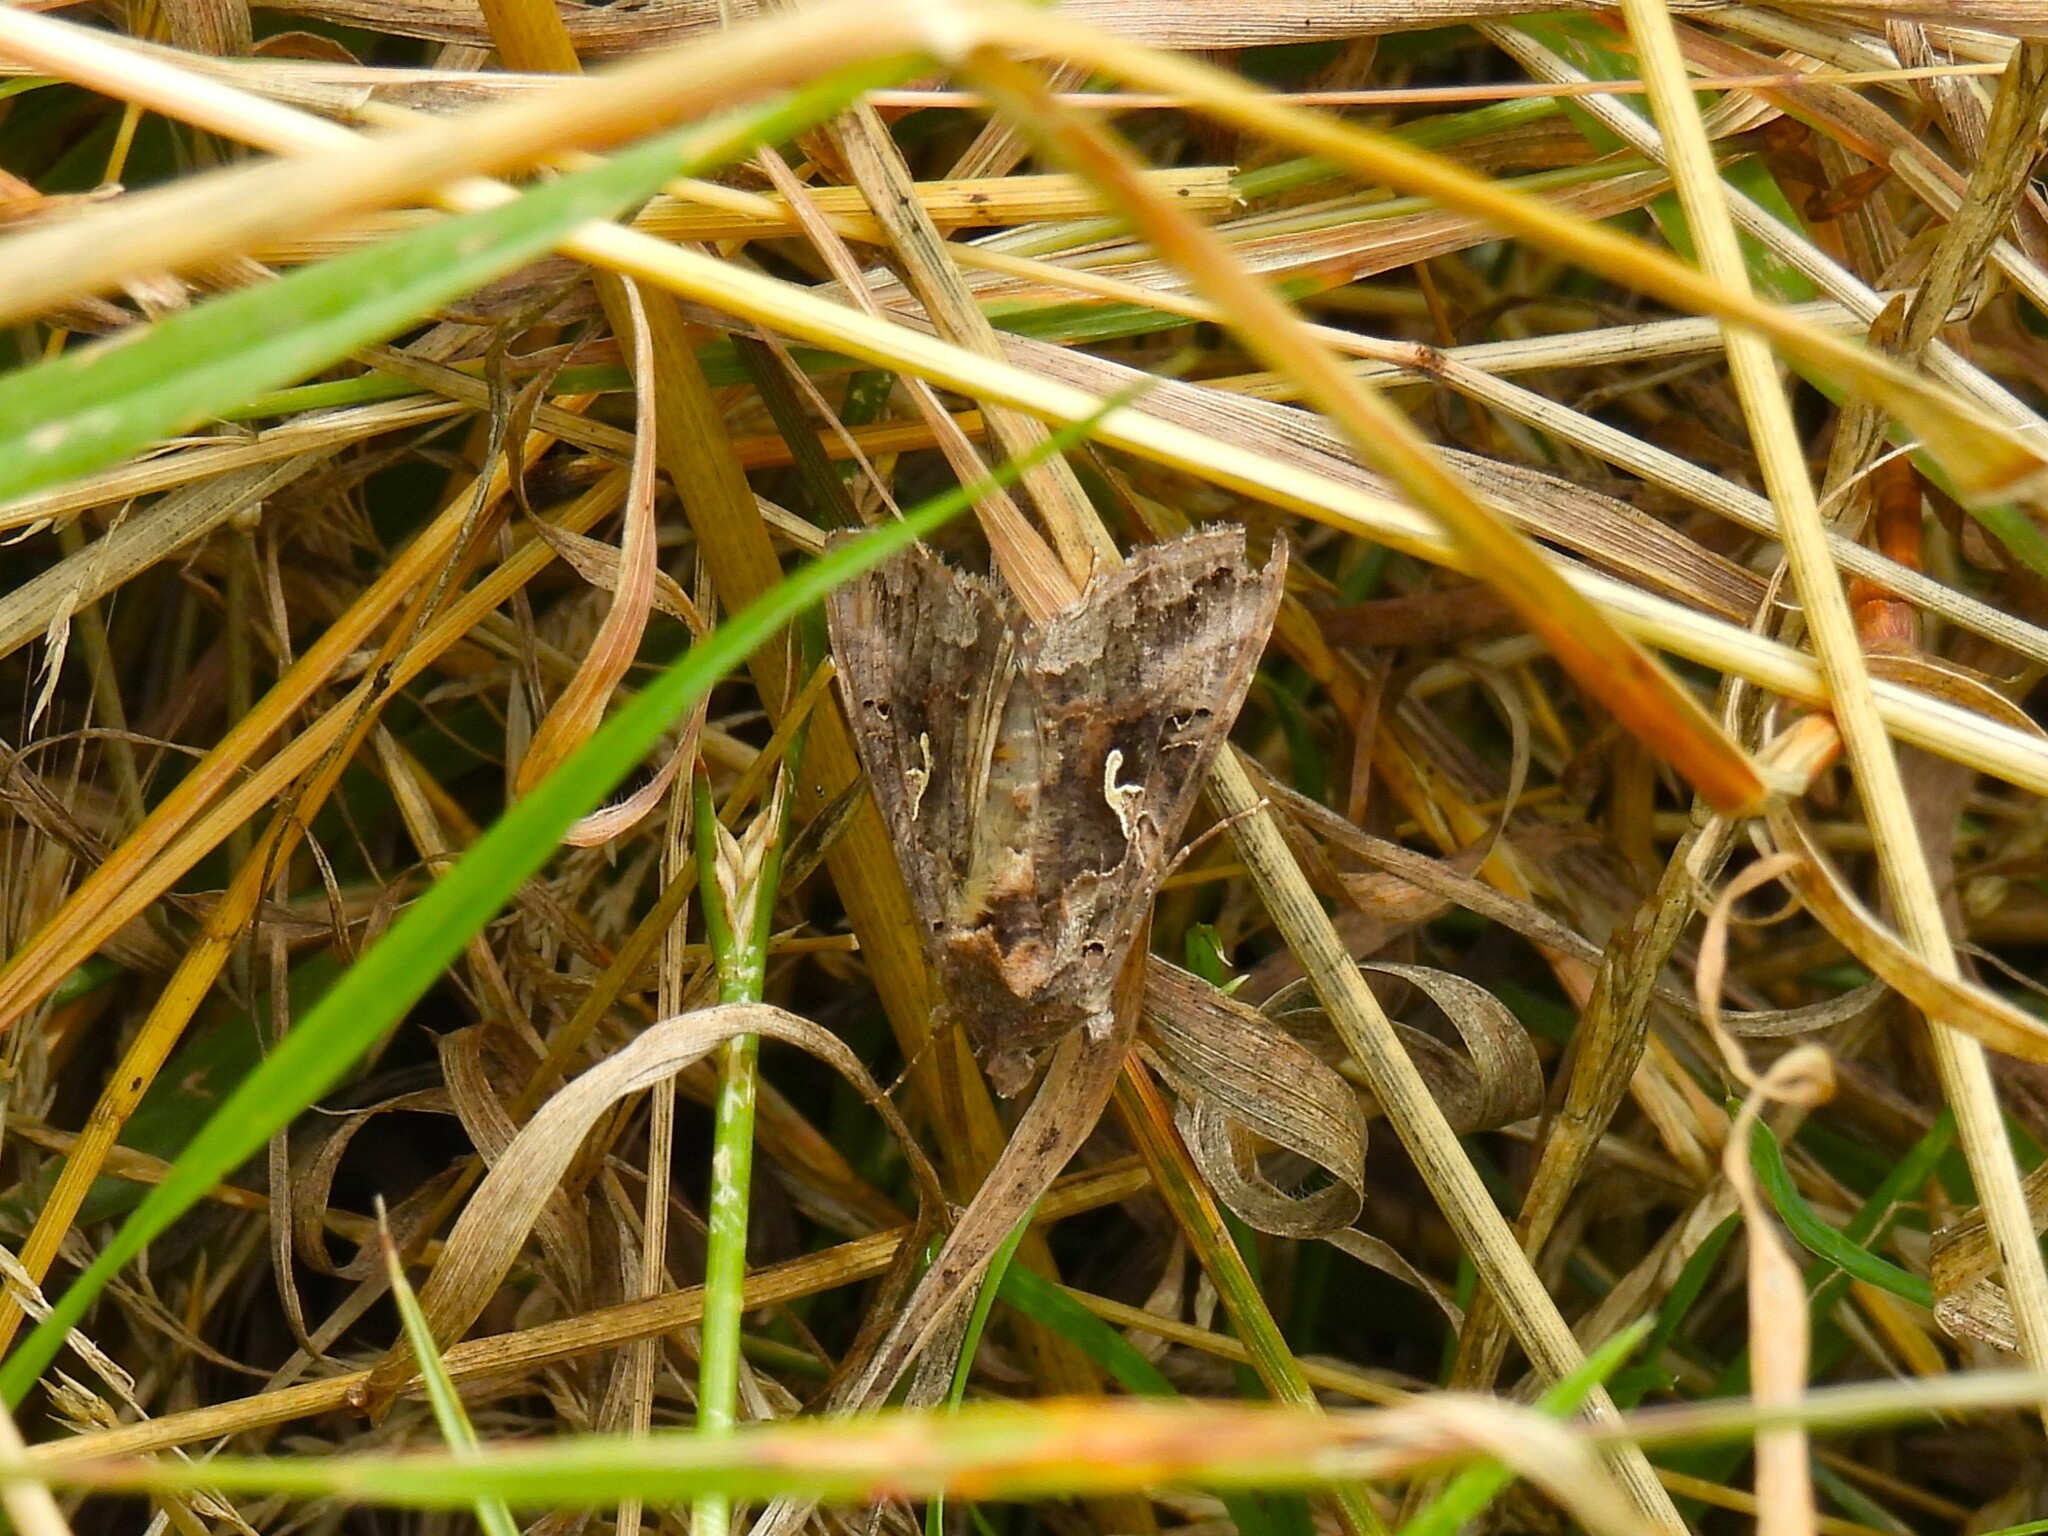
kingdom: Animalia
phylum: Arthropoda
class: Insecta
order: Lepidoptera
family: Noctuidae
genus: Autographa
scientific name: Autographa gamma
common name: Silver y
